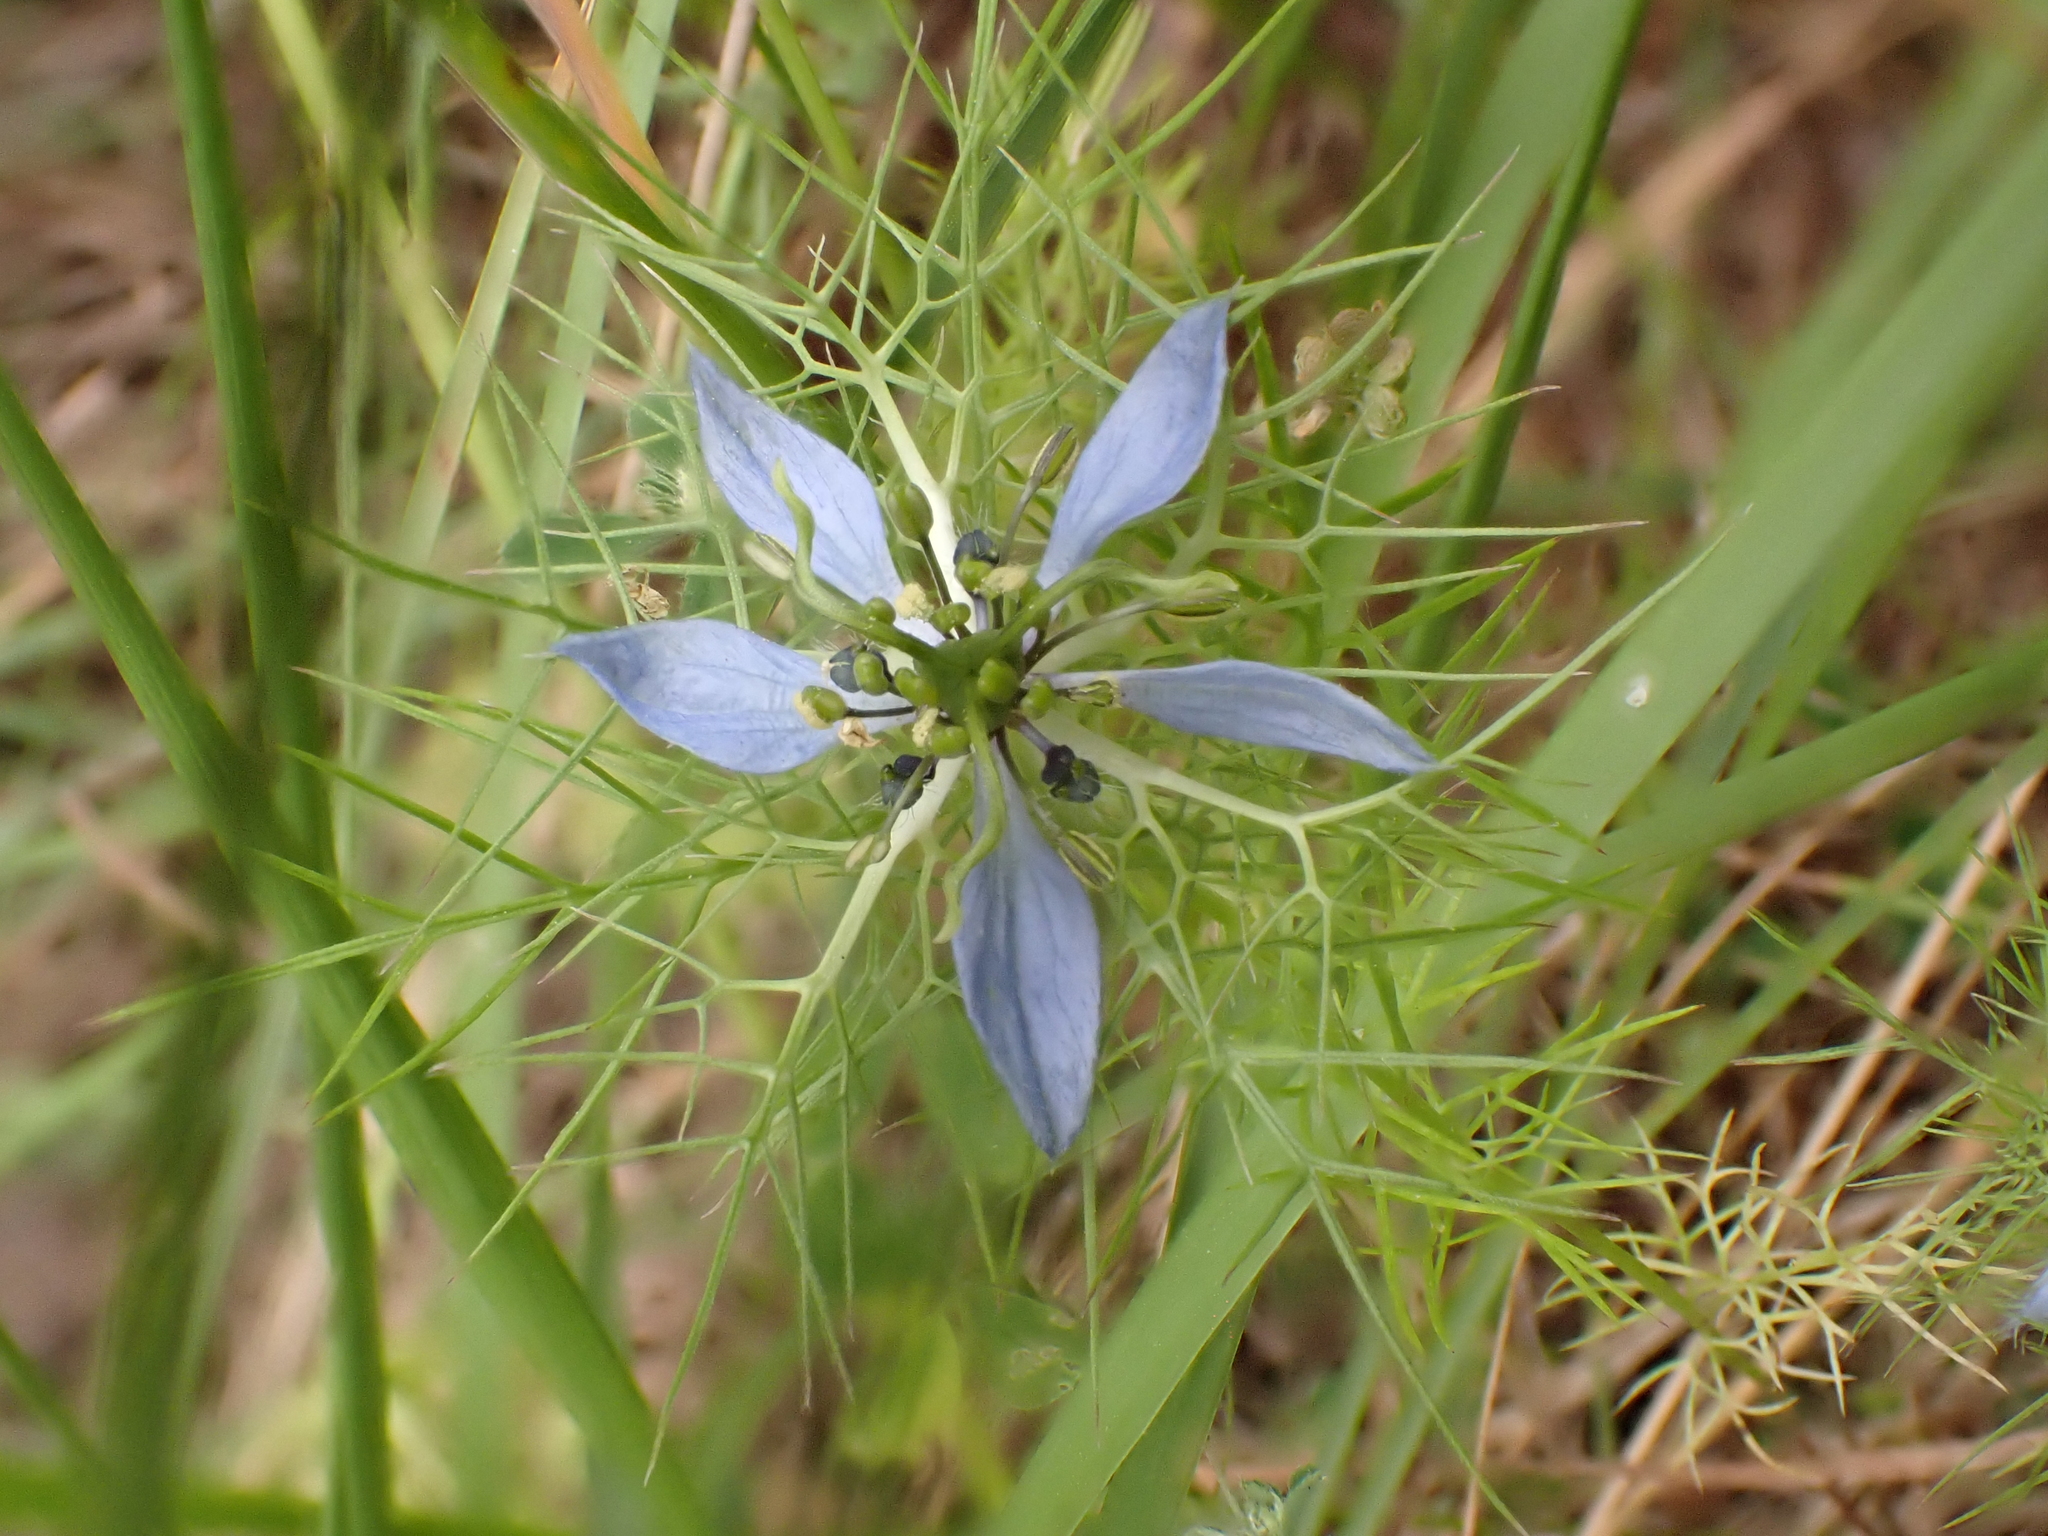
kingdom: Plantae
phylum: Tracheophyta
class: Magnoliopsida
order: Ranunculales
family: Ranunculaceae
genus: Nigella
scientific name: Nigella damascena
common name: Love-in-a-mist
